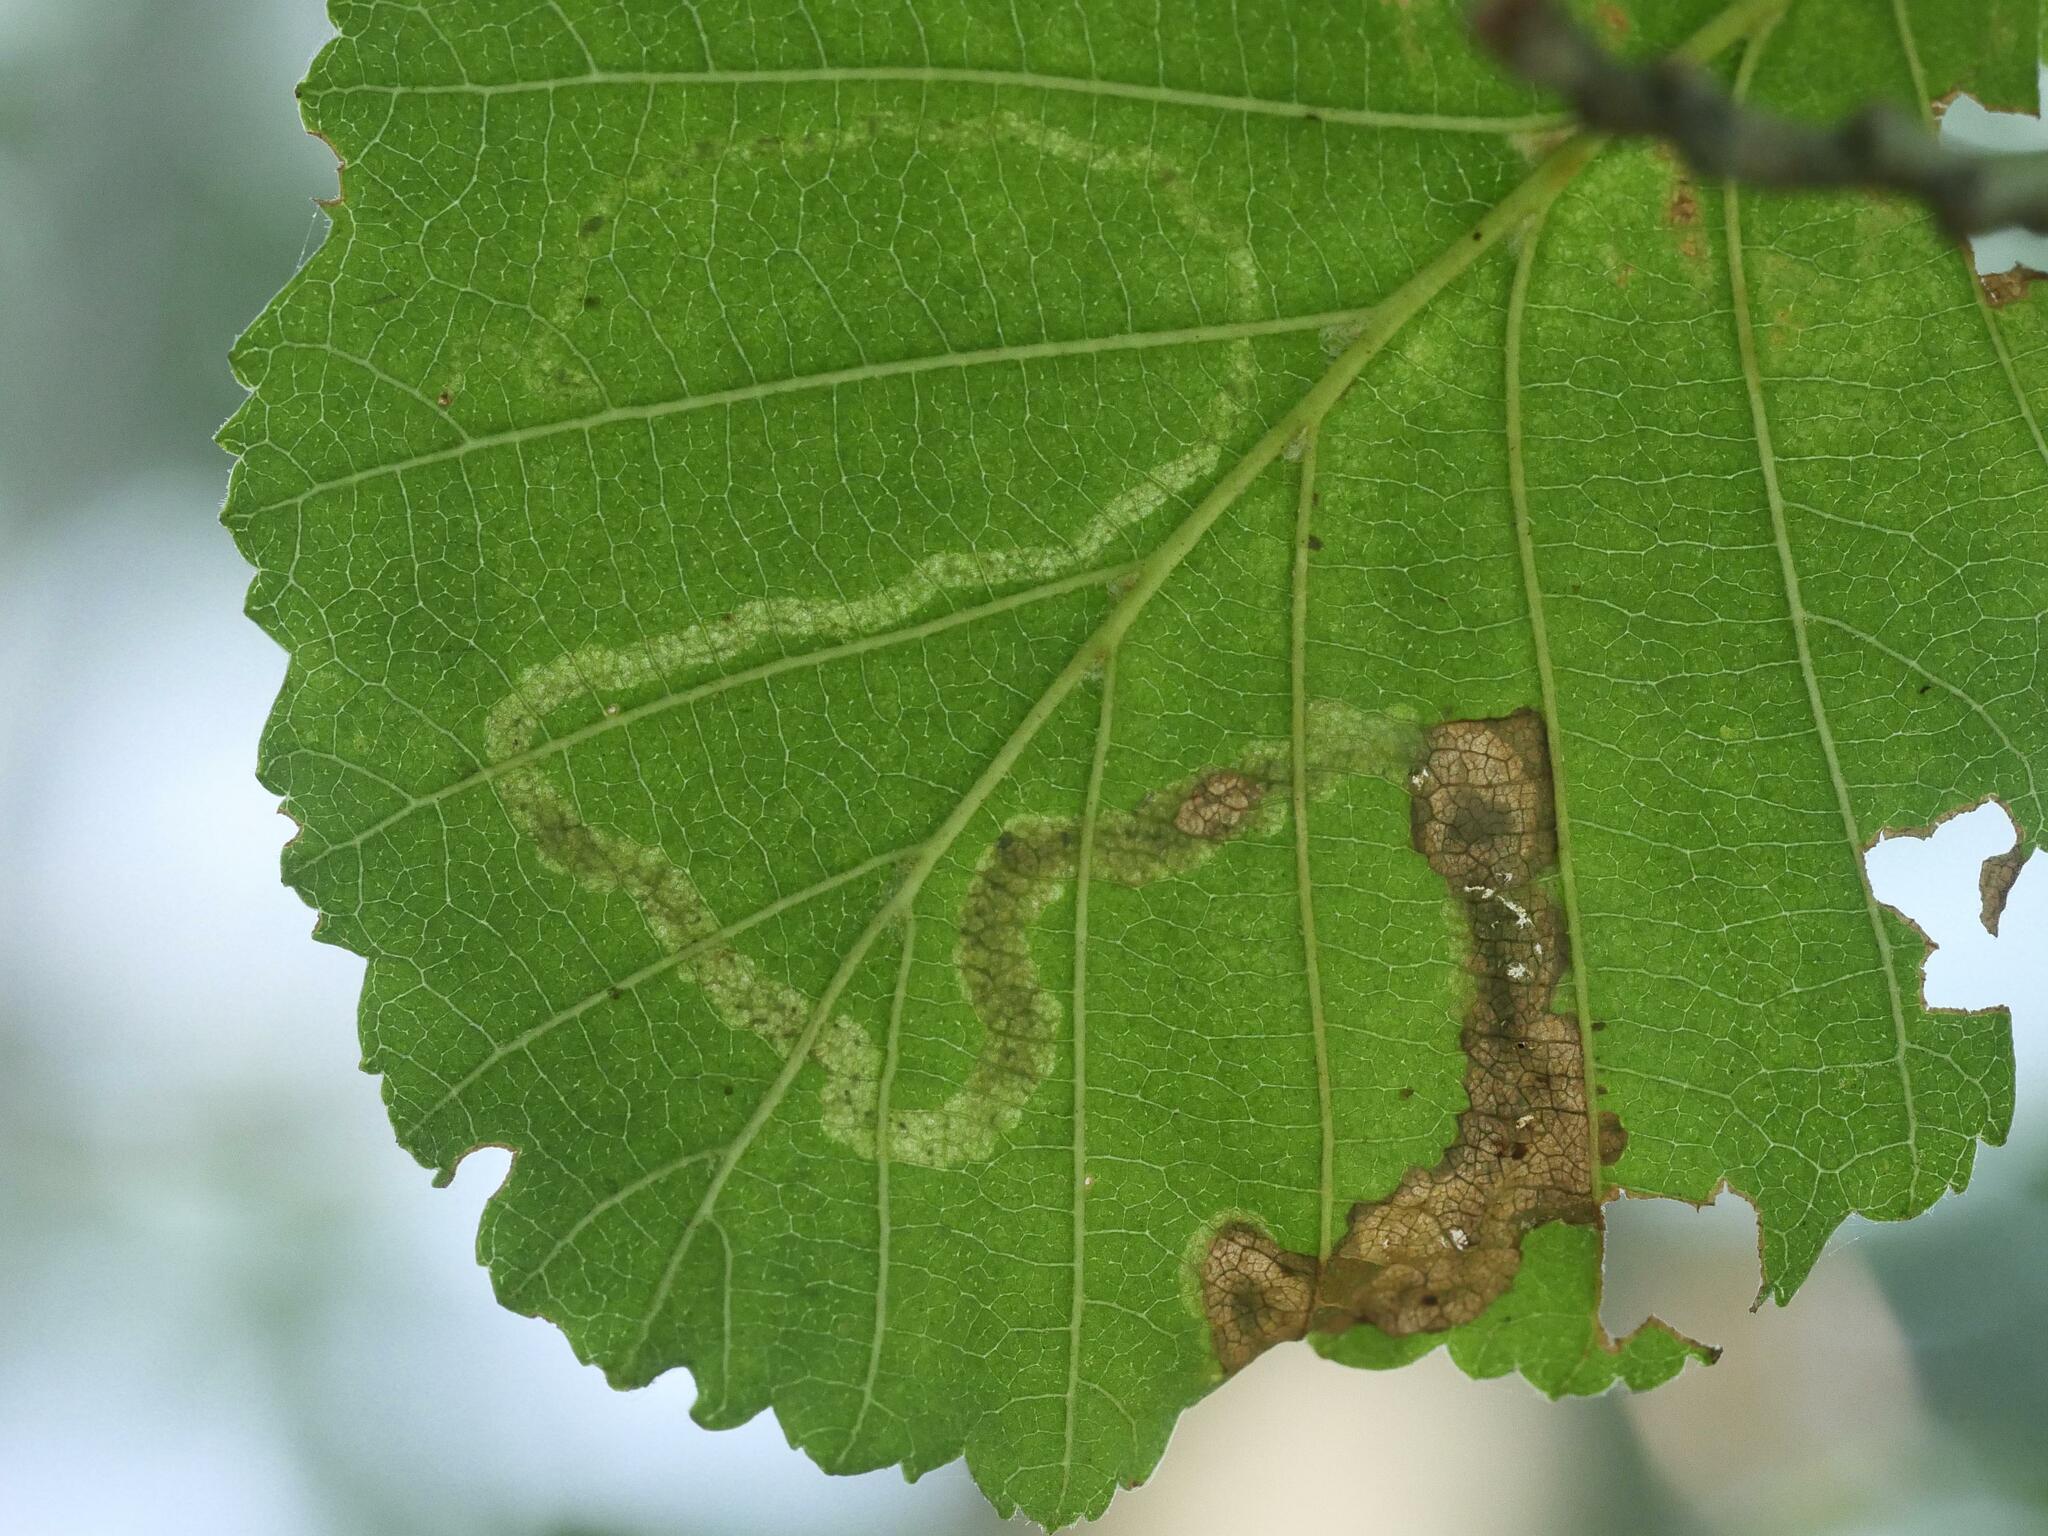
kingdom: Animalia
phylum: Arthropoda
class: Insecta
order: Diptera
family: Agromyzidae
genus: Agromyza
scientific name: Agromyza alnivora
